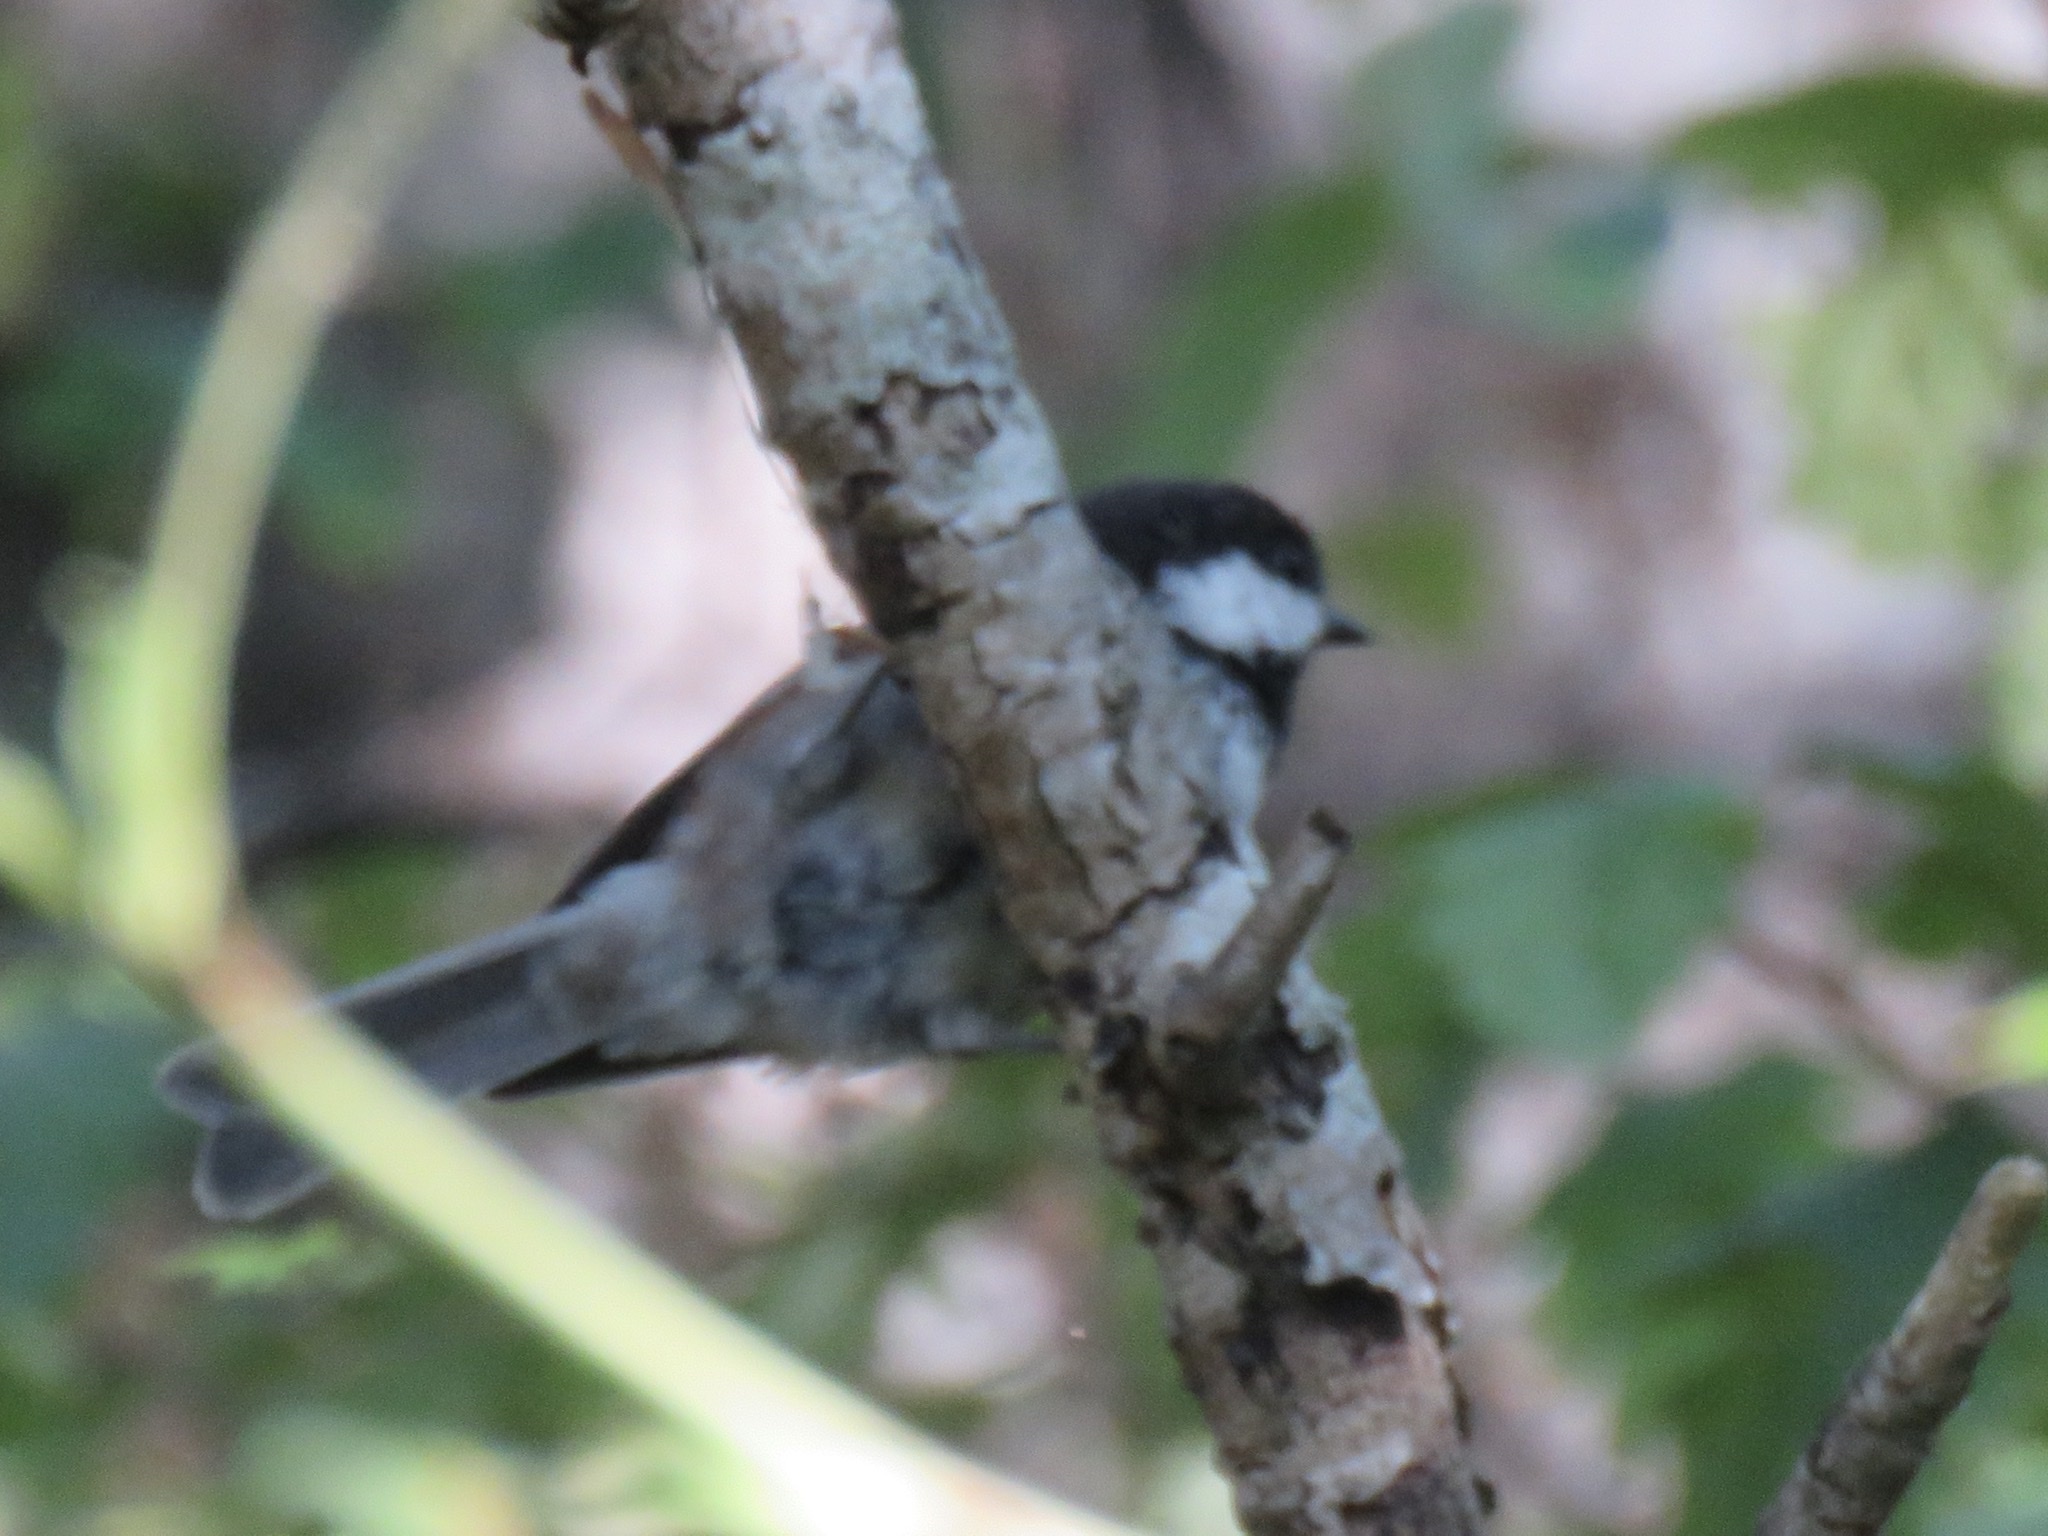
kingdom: Animalia
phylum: Chordata
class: Aves
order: Passeriformes
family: Paridae
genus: Poecile
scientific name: Poecile rufescens
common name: Chestnut-backed chickadee
